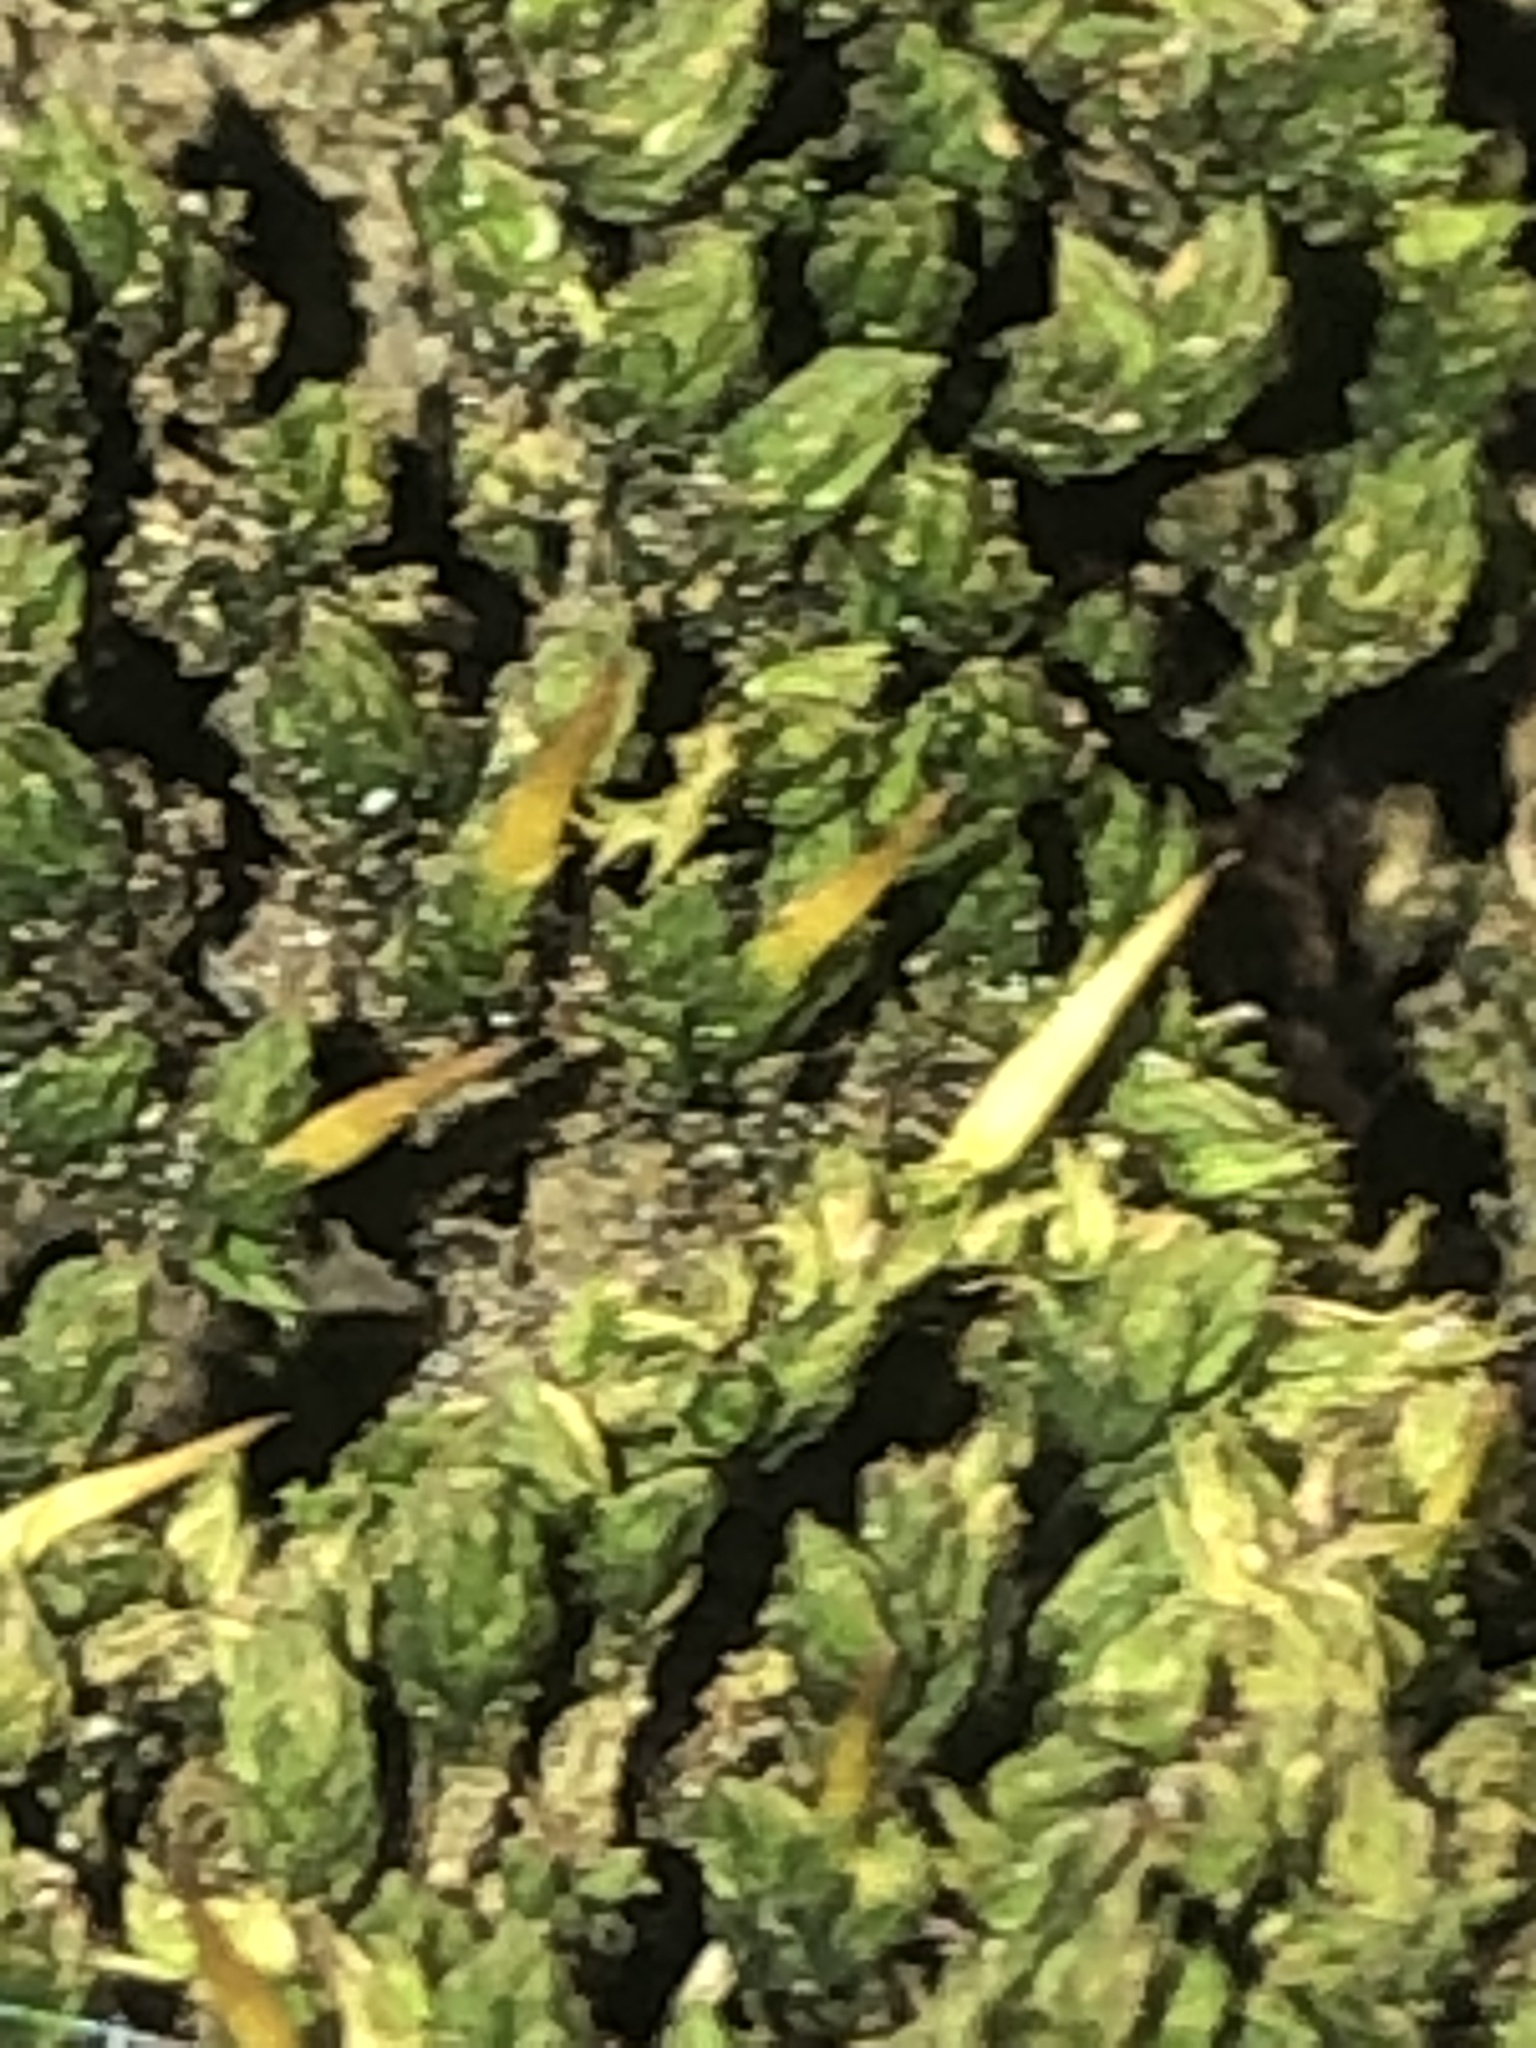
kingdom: Plantae
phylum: Bryophyta
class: Bryopsida
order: Scouleriales
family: Drummondiaceae
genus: Drummondia
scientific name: Drummondia prorepens
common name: Drummond's bark moss
